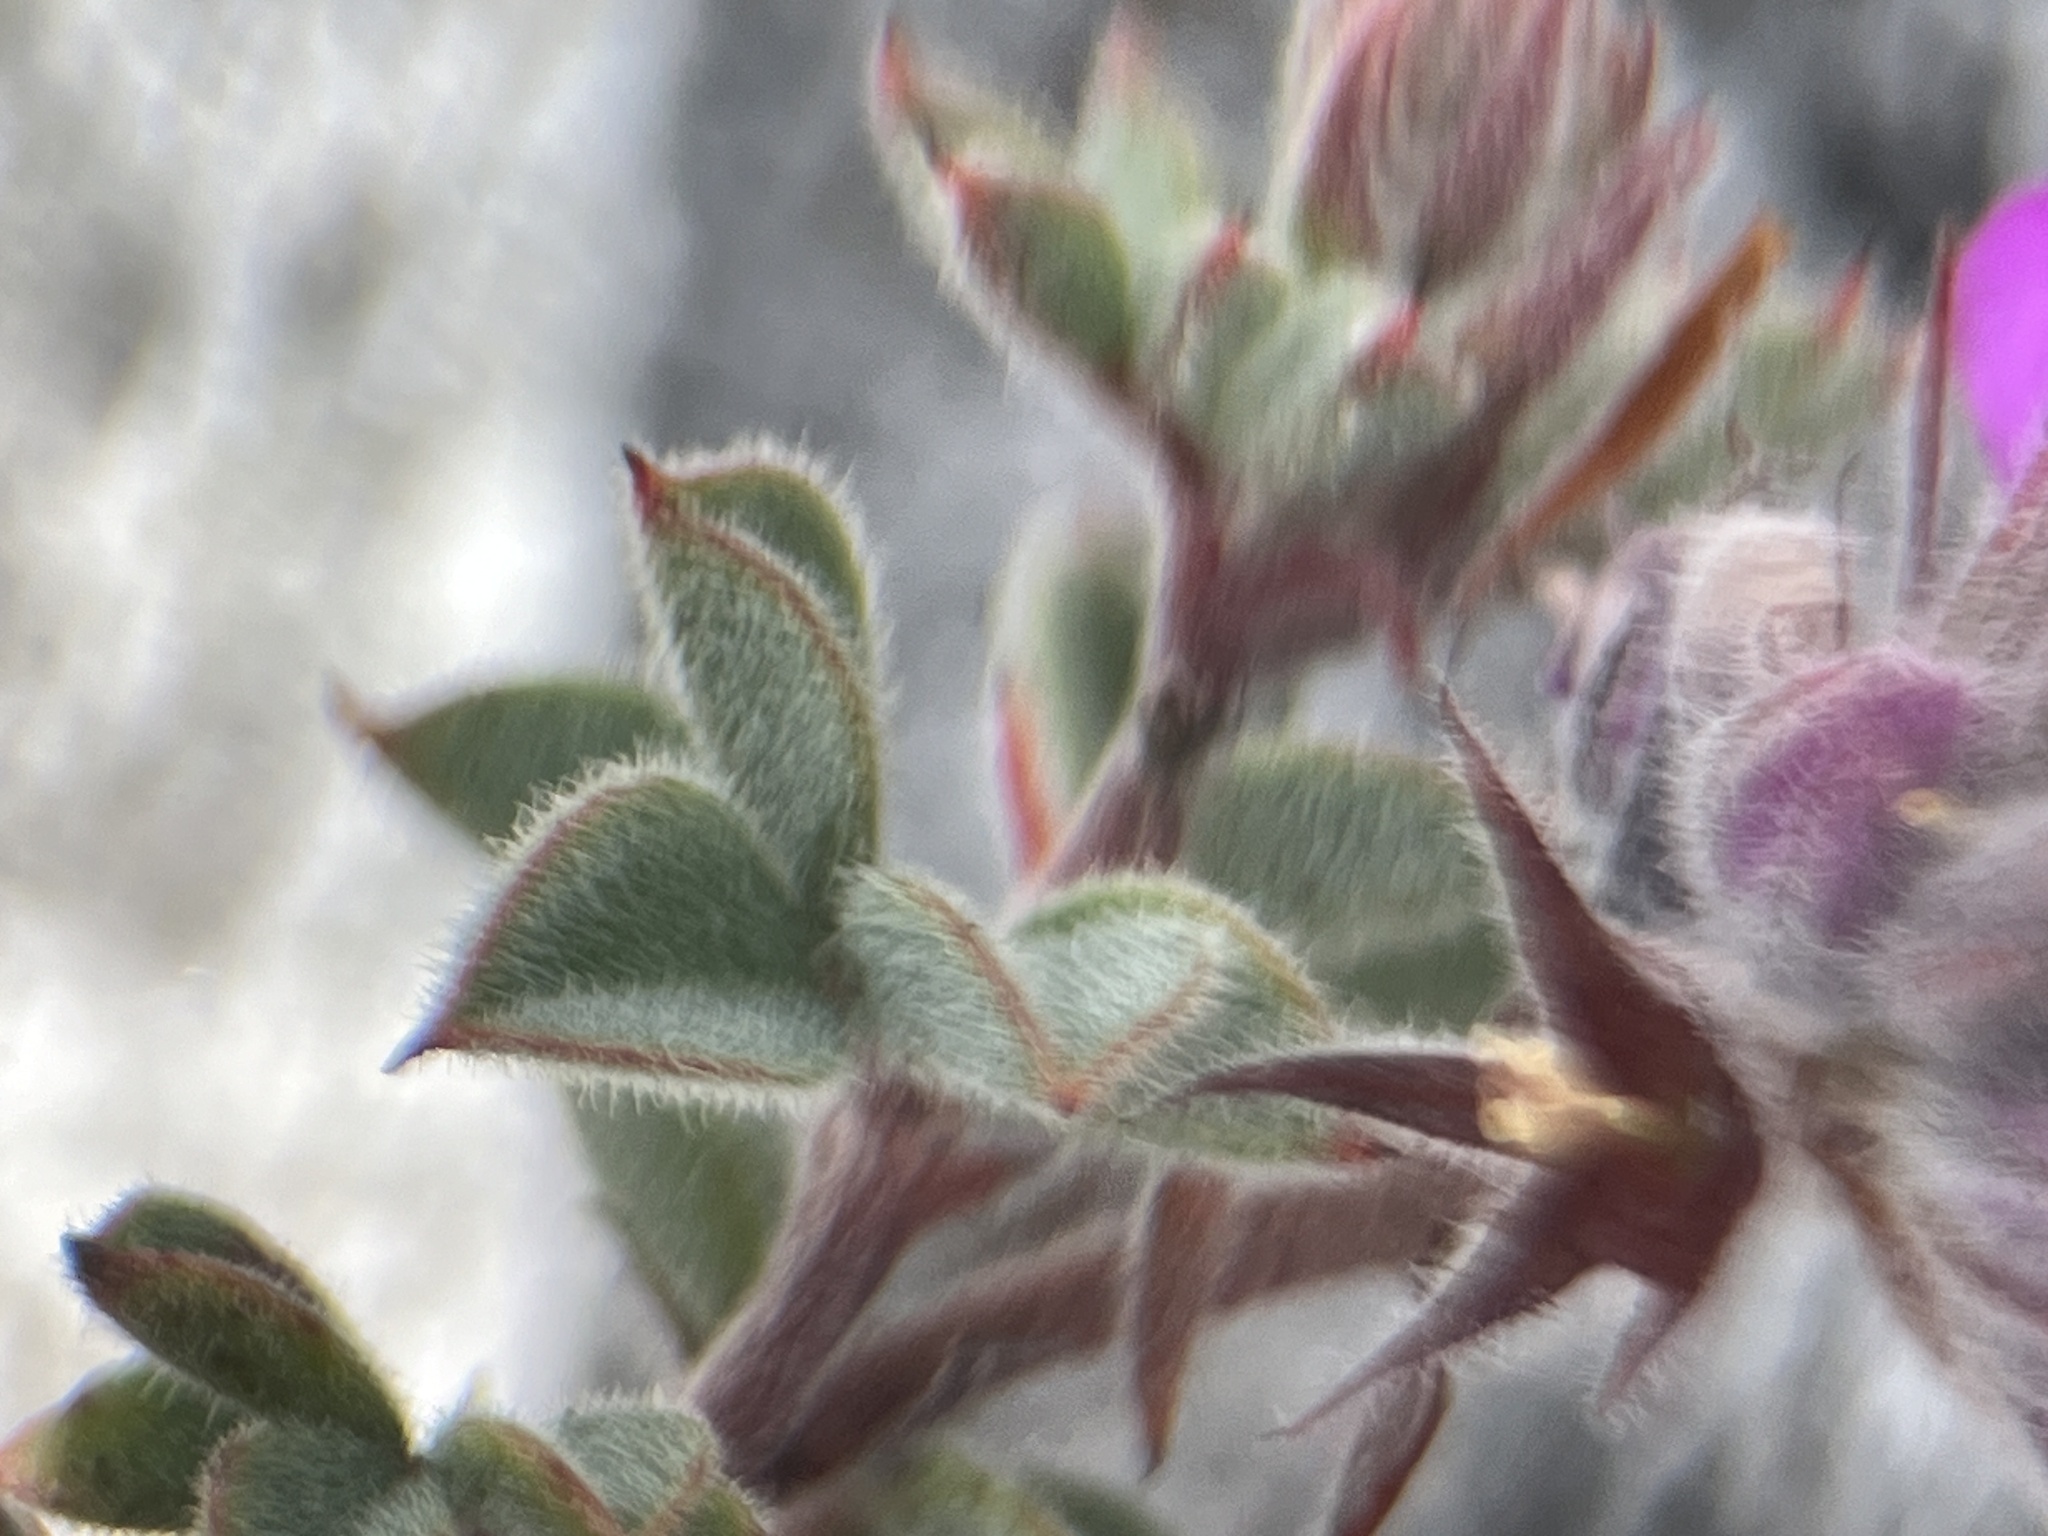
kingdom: Plantae
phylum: Tracheophyta
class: Magnoliopsida
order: Fabales
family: Fabaceae
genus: Indigofera
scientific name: Indigofera
